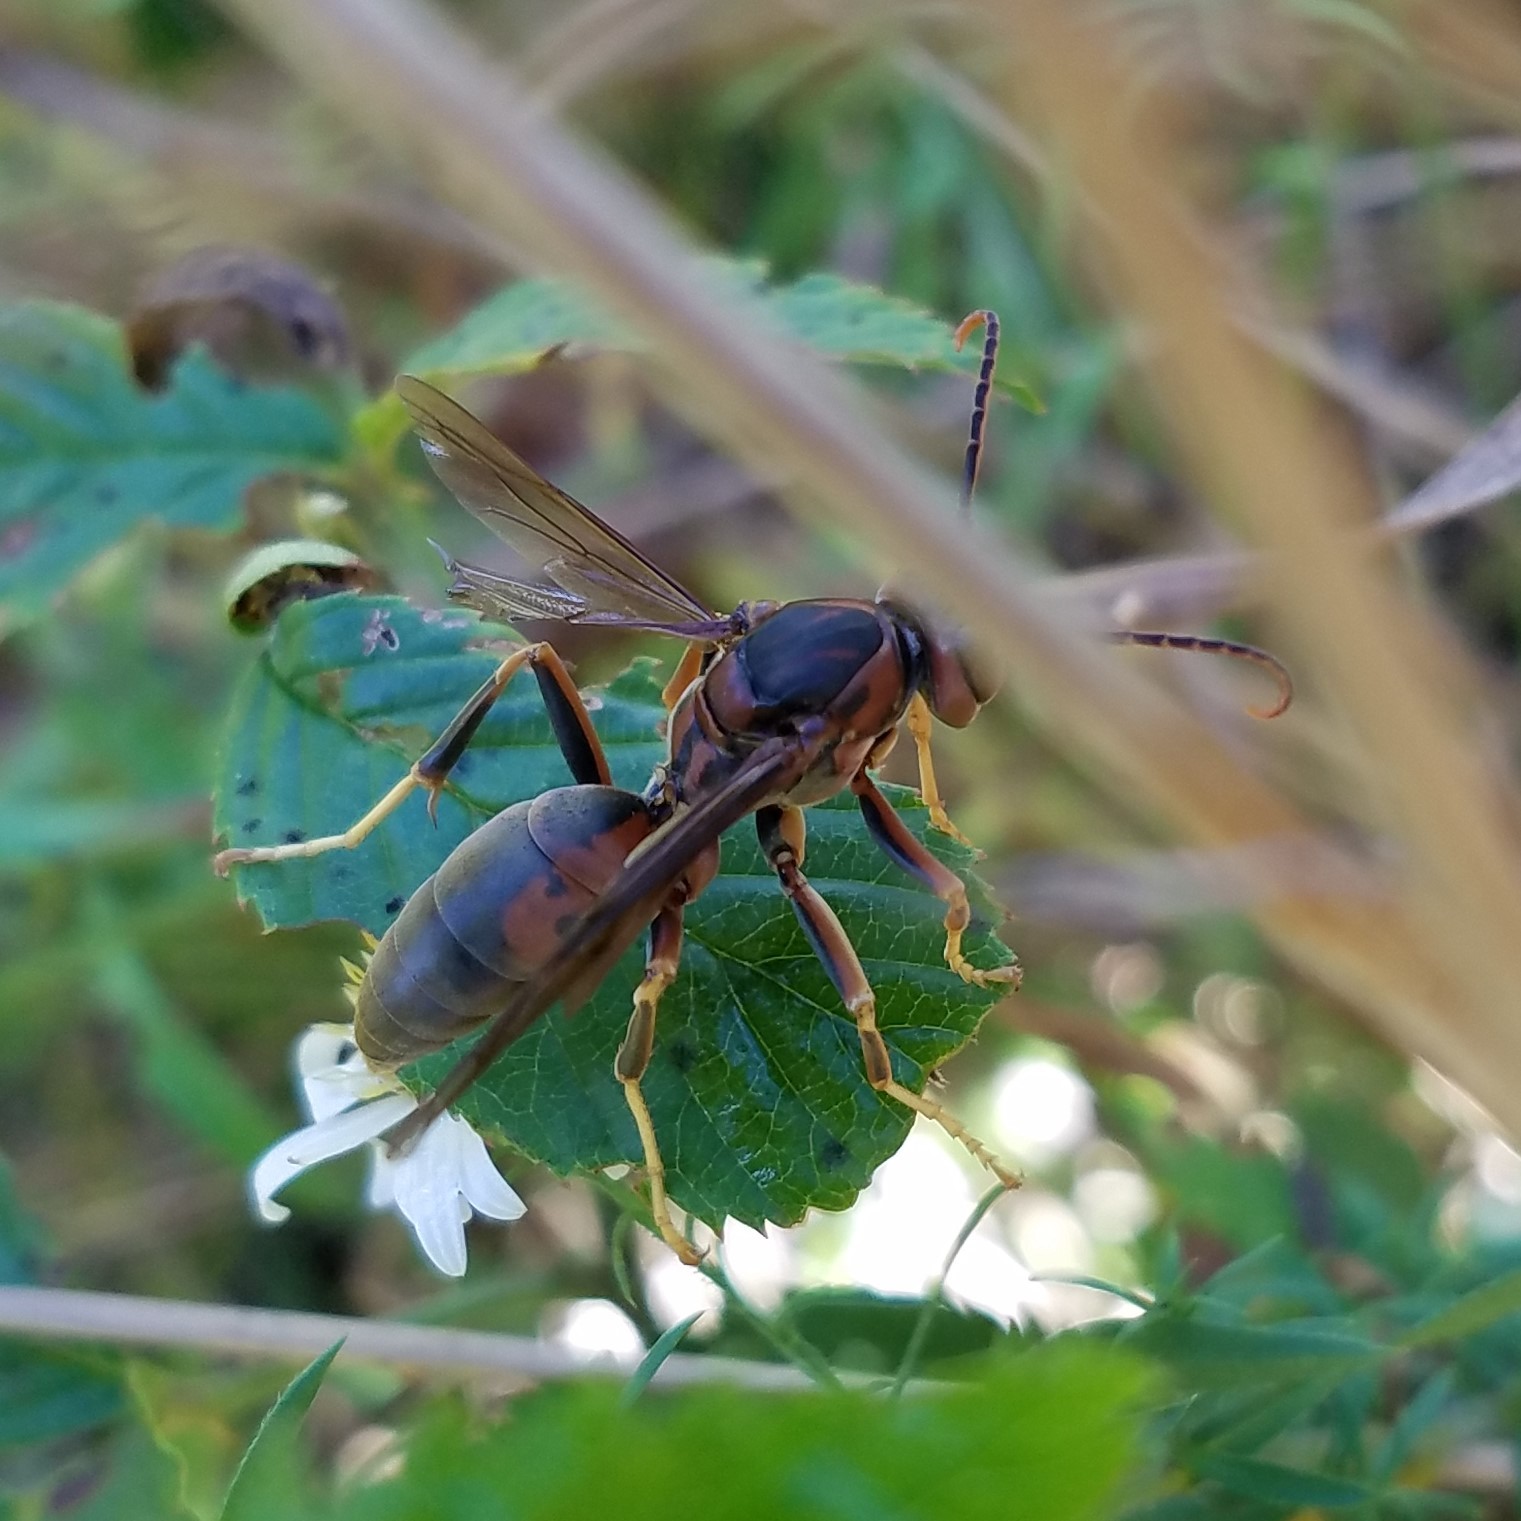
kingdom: Animalia
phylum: Arthropoda
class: Insecta
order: Hymenoptera
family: Eumenidae
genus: Polistes
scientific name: Polistes metricus
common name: Metric paper wasp
